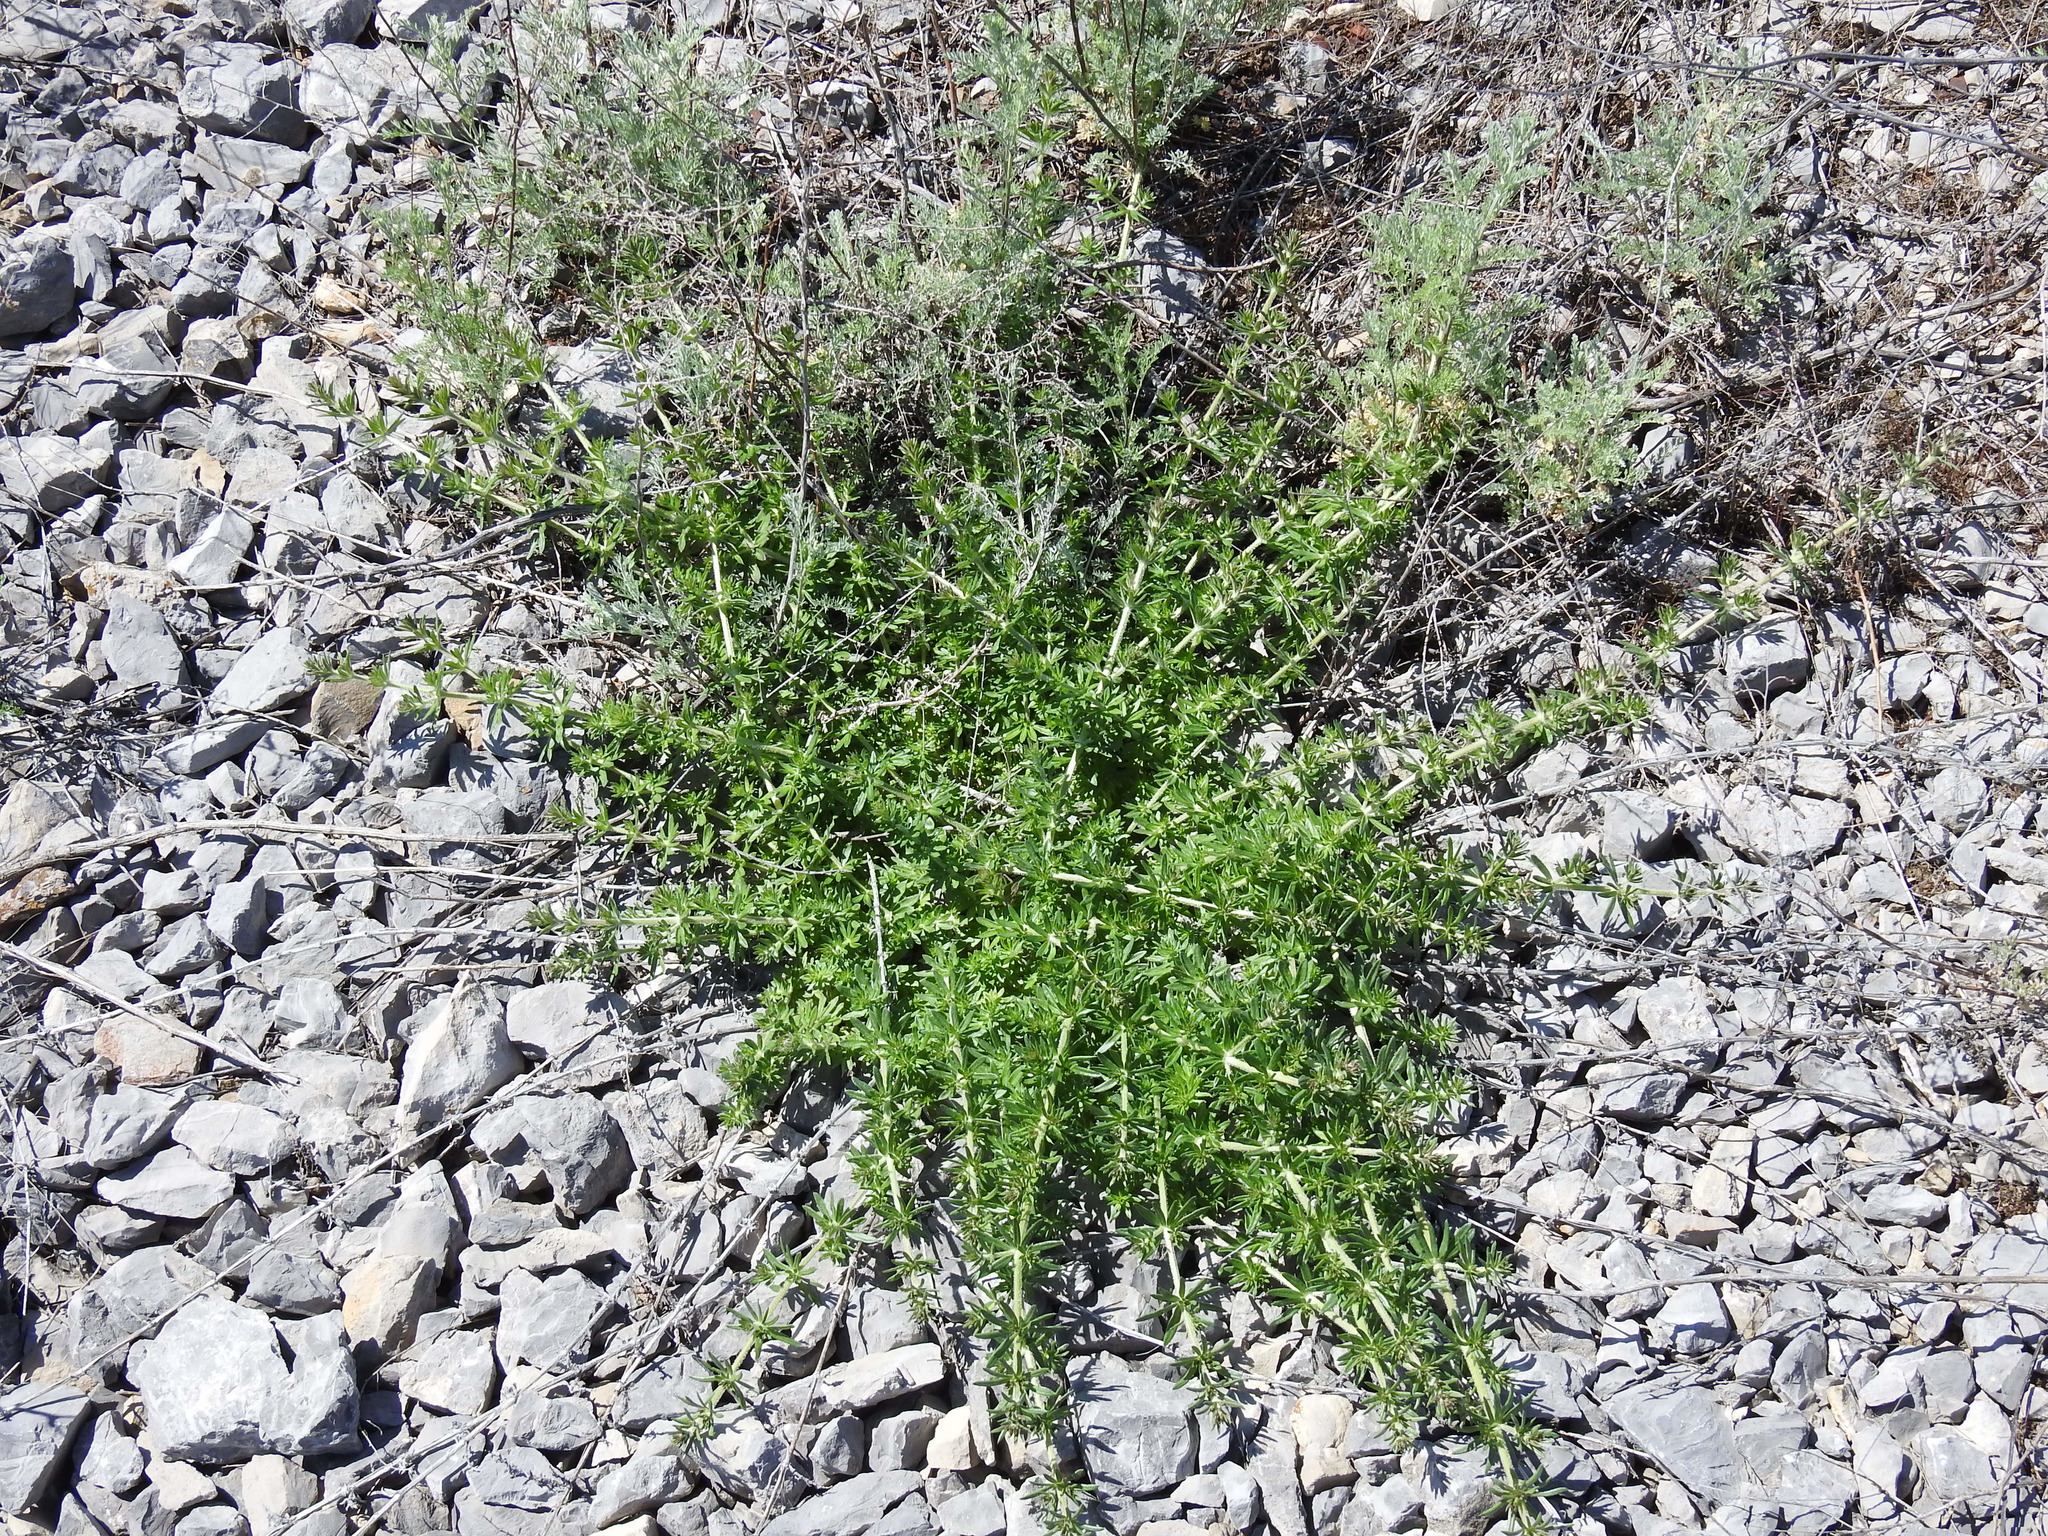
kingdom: Plantae
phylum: Tracheophyta
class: Magnoliopsida
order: Gentianales
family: Rubiaceae
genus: Galium
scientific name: Galium humifusum
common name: Spreading bedstraw
